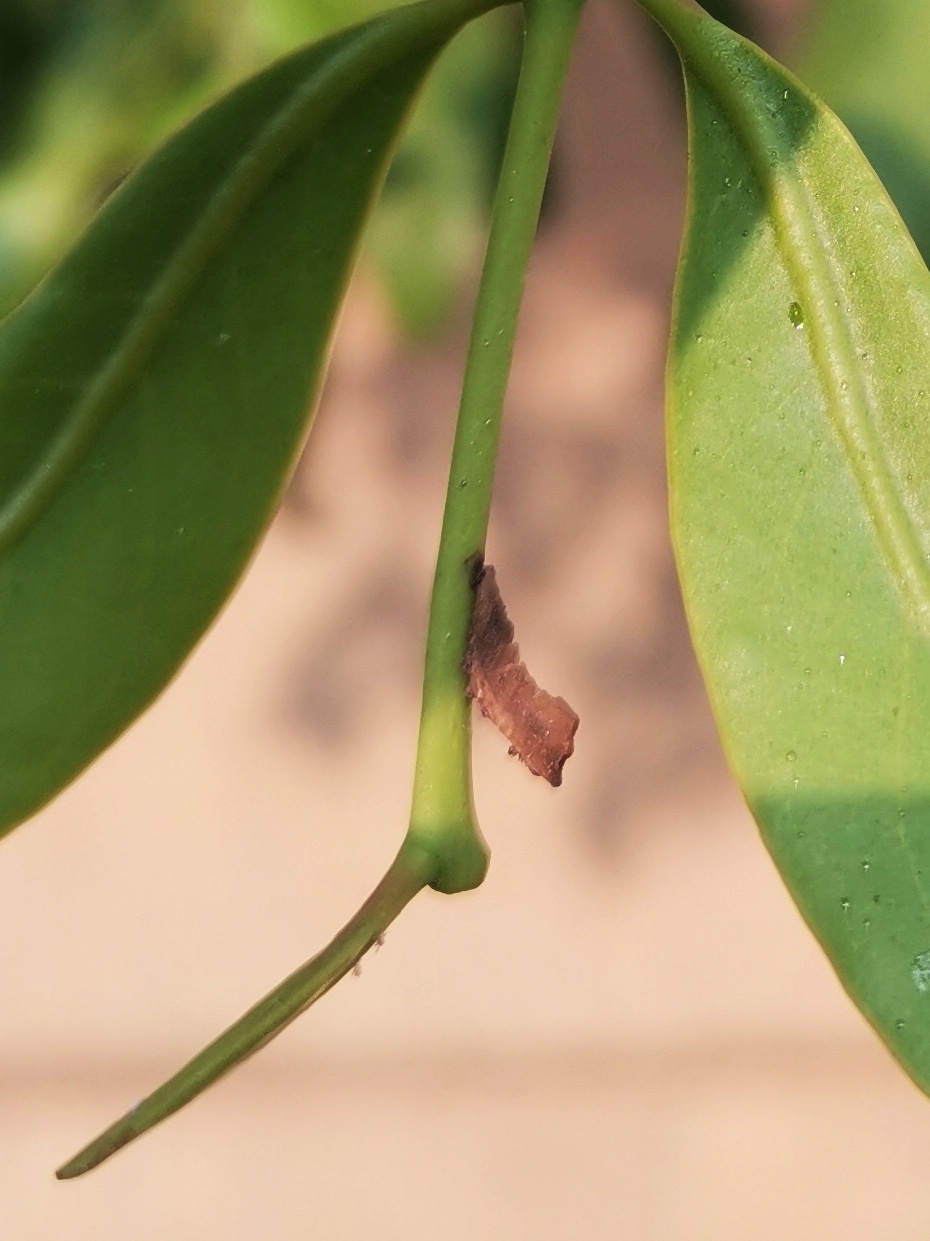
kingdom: Animalia
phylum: Arthropoda
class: Insecta
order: Lepidoptera
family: Lycaenidae
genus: Tajuria
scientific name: Tajuria cippus
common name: Peacock royal
